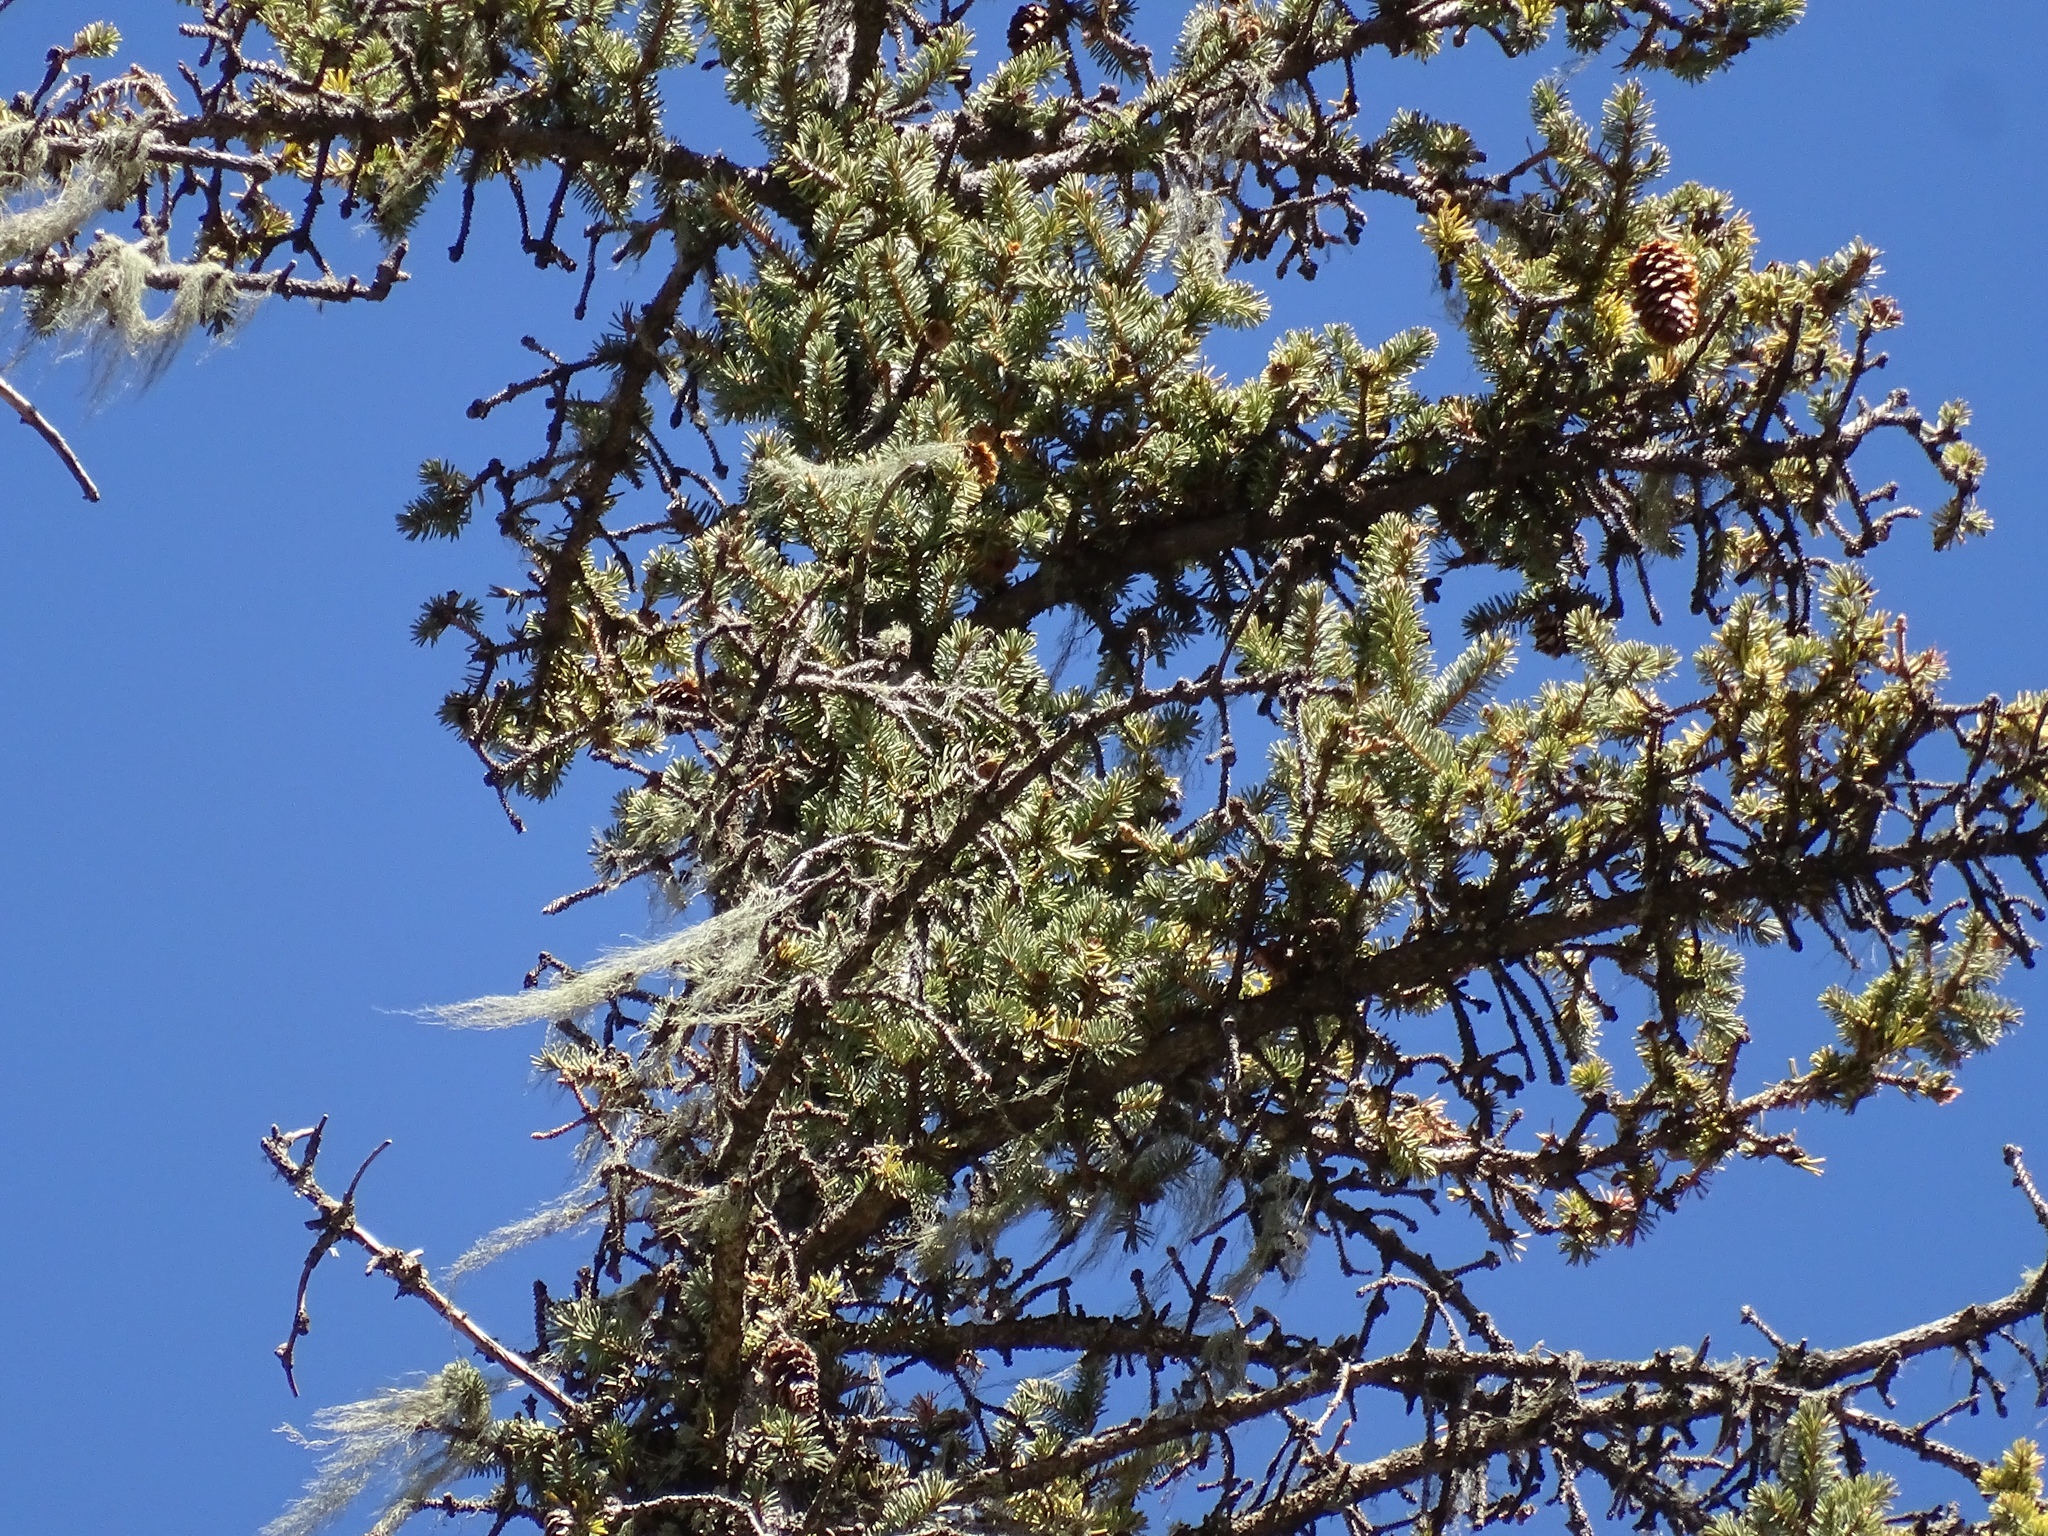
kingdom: Plantae
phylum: Tracheophyta
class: Pinopsida
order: Pinales
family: Pinaceae
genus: Picea
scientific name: Picea engelmannii
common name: Engelmann spruce
